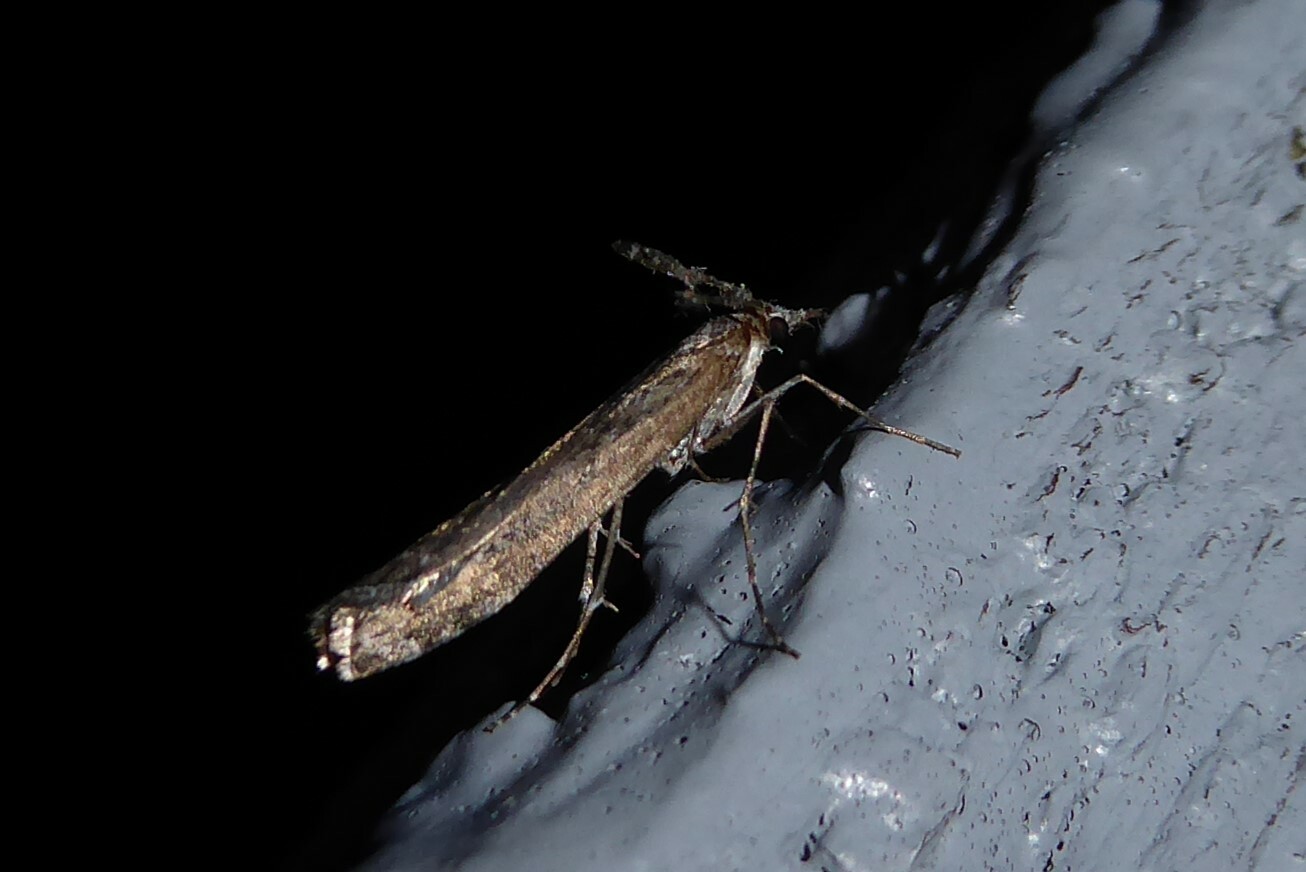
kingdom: Animalia
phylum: Arthropoda
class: Insecta
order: Lepidoptera
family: Crambidae
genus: Orocrambus
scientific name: Orocrambus cyclopicus
